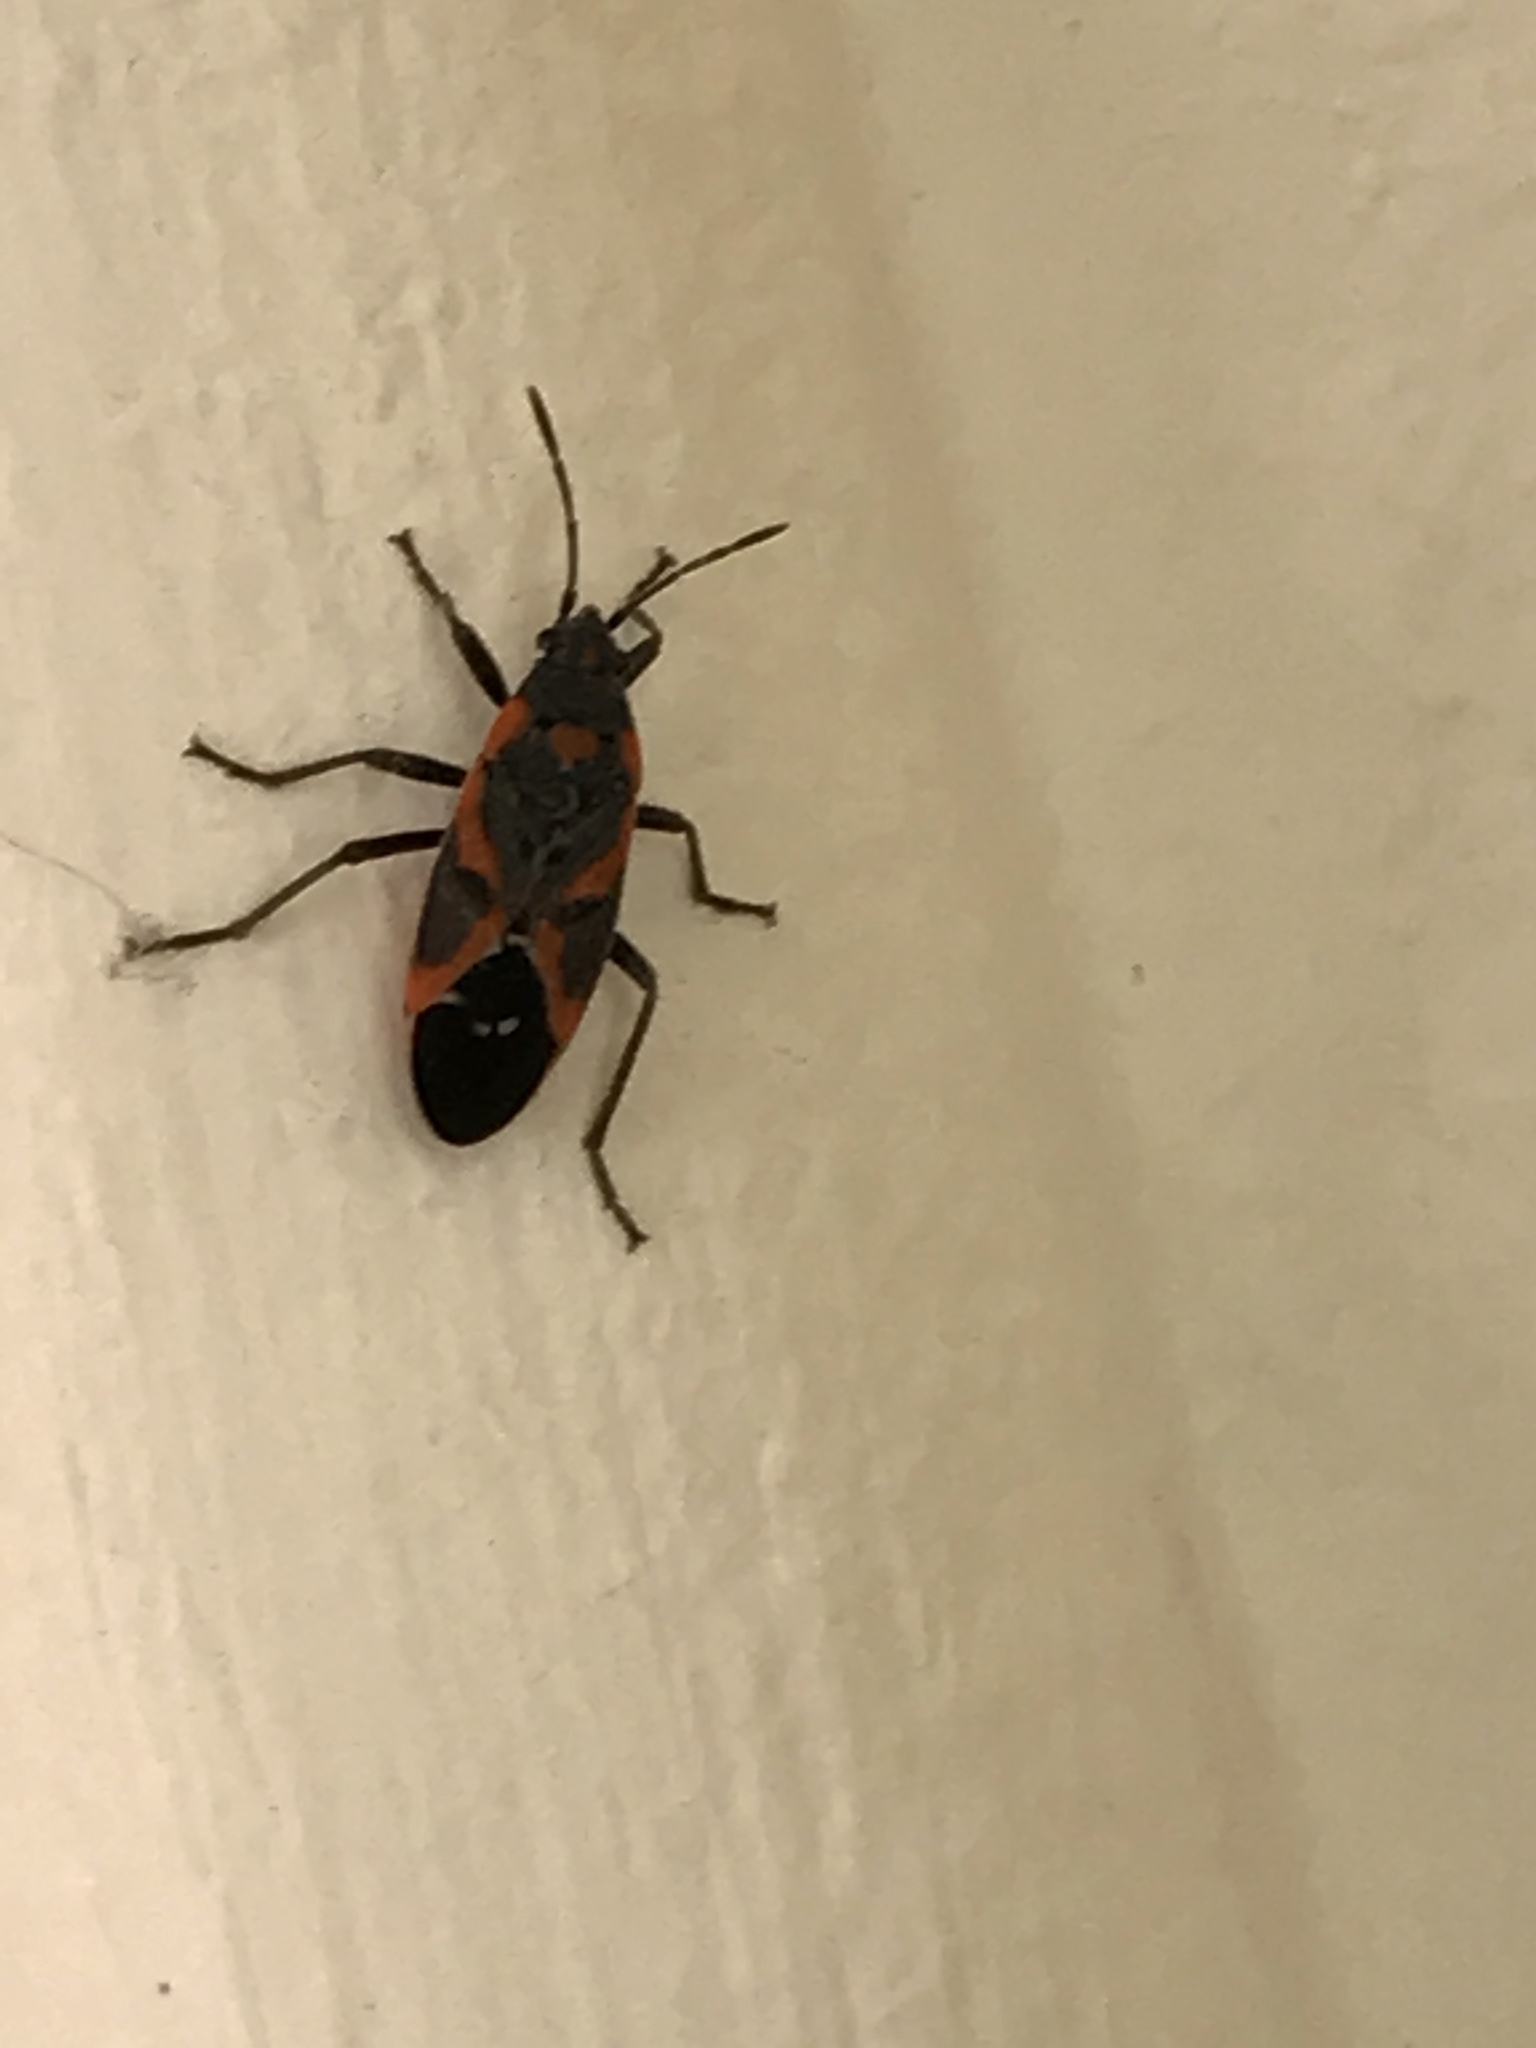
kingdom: Animalia
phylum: Arthropoda
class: Insecta
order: Hemiptera
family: Lygaeidae
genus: Lygaeus
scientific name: Lygaeus kalmii
